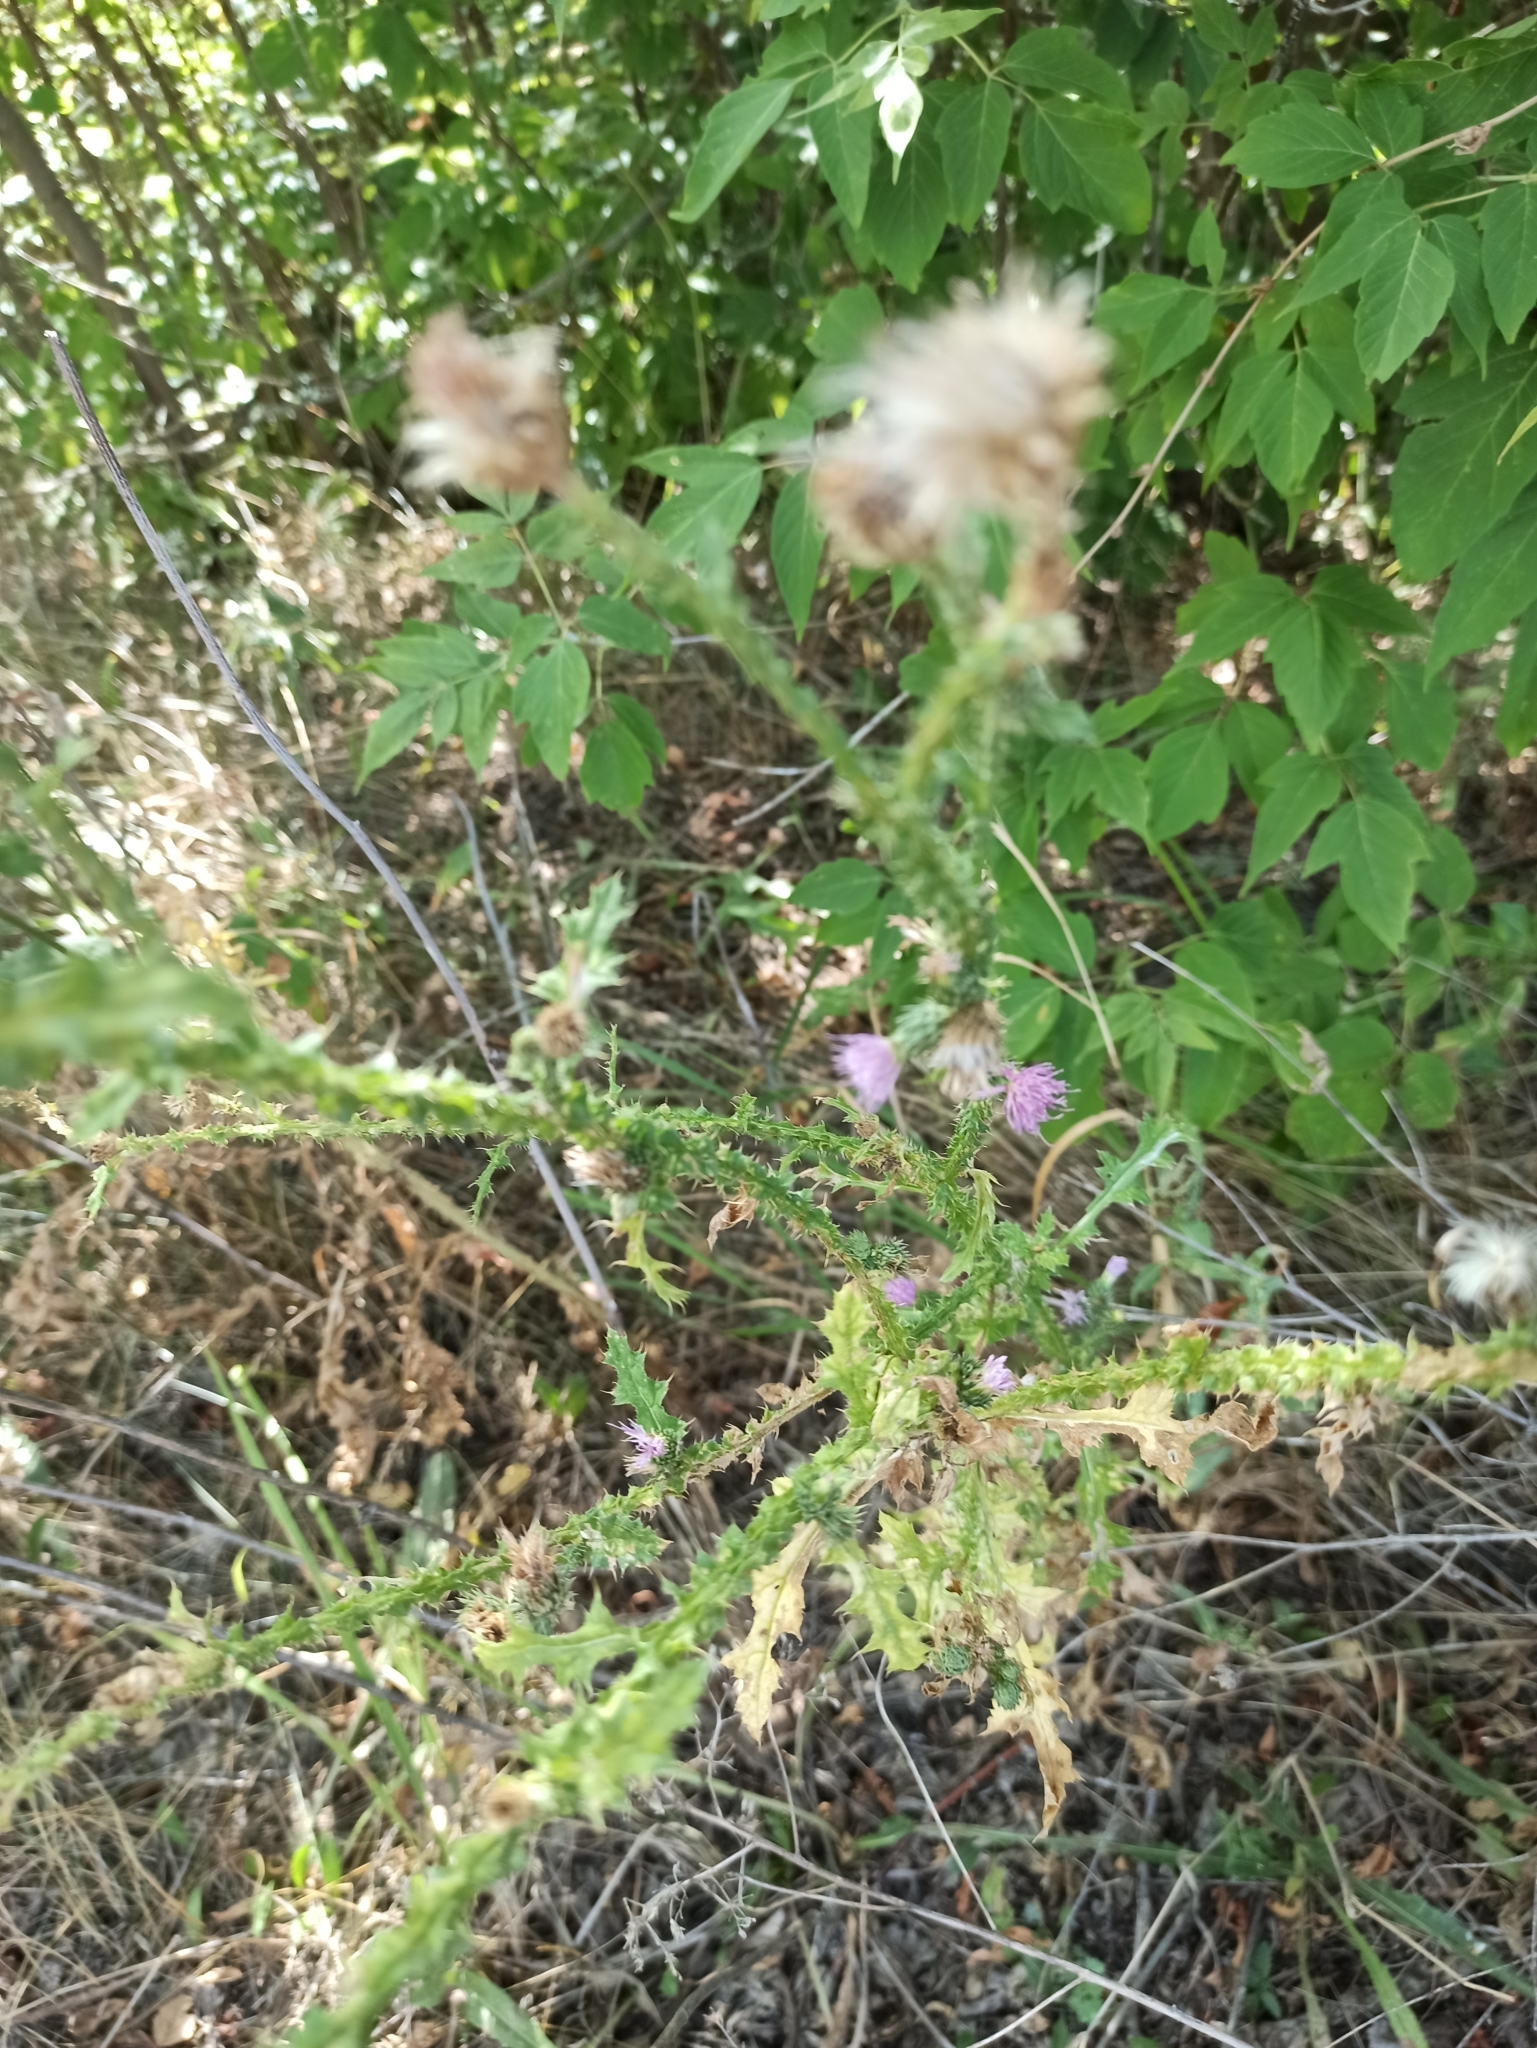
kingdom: Plantae
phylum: Tracheophyta
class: Magnoliopsida
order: Asterales
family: Asteraceae
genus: Carduus
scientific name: Carduus acanthoides
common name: Plumeless thistle
